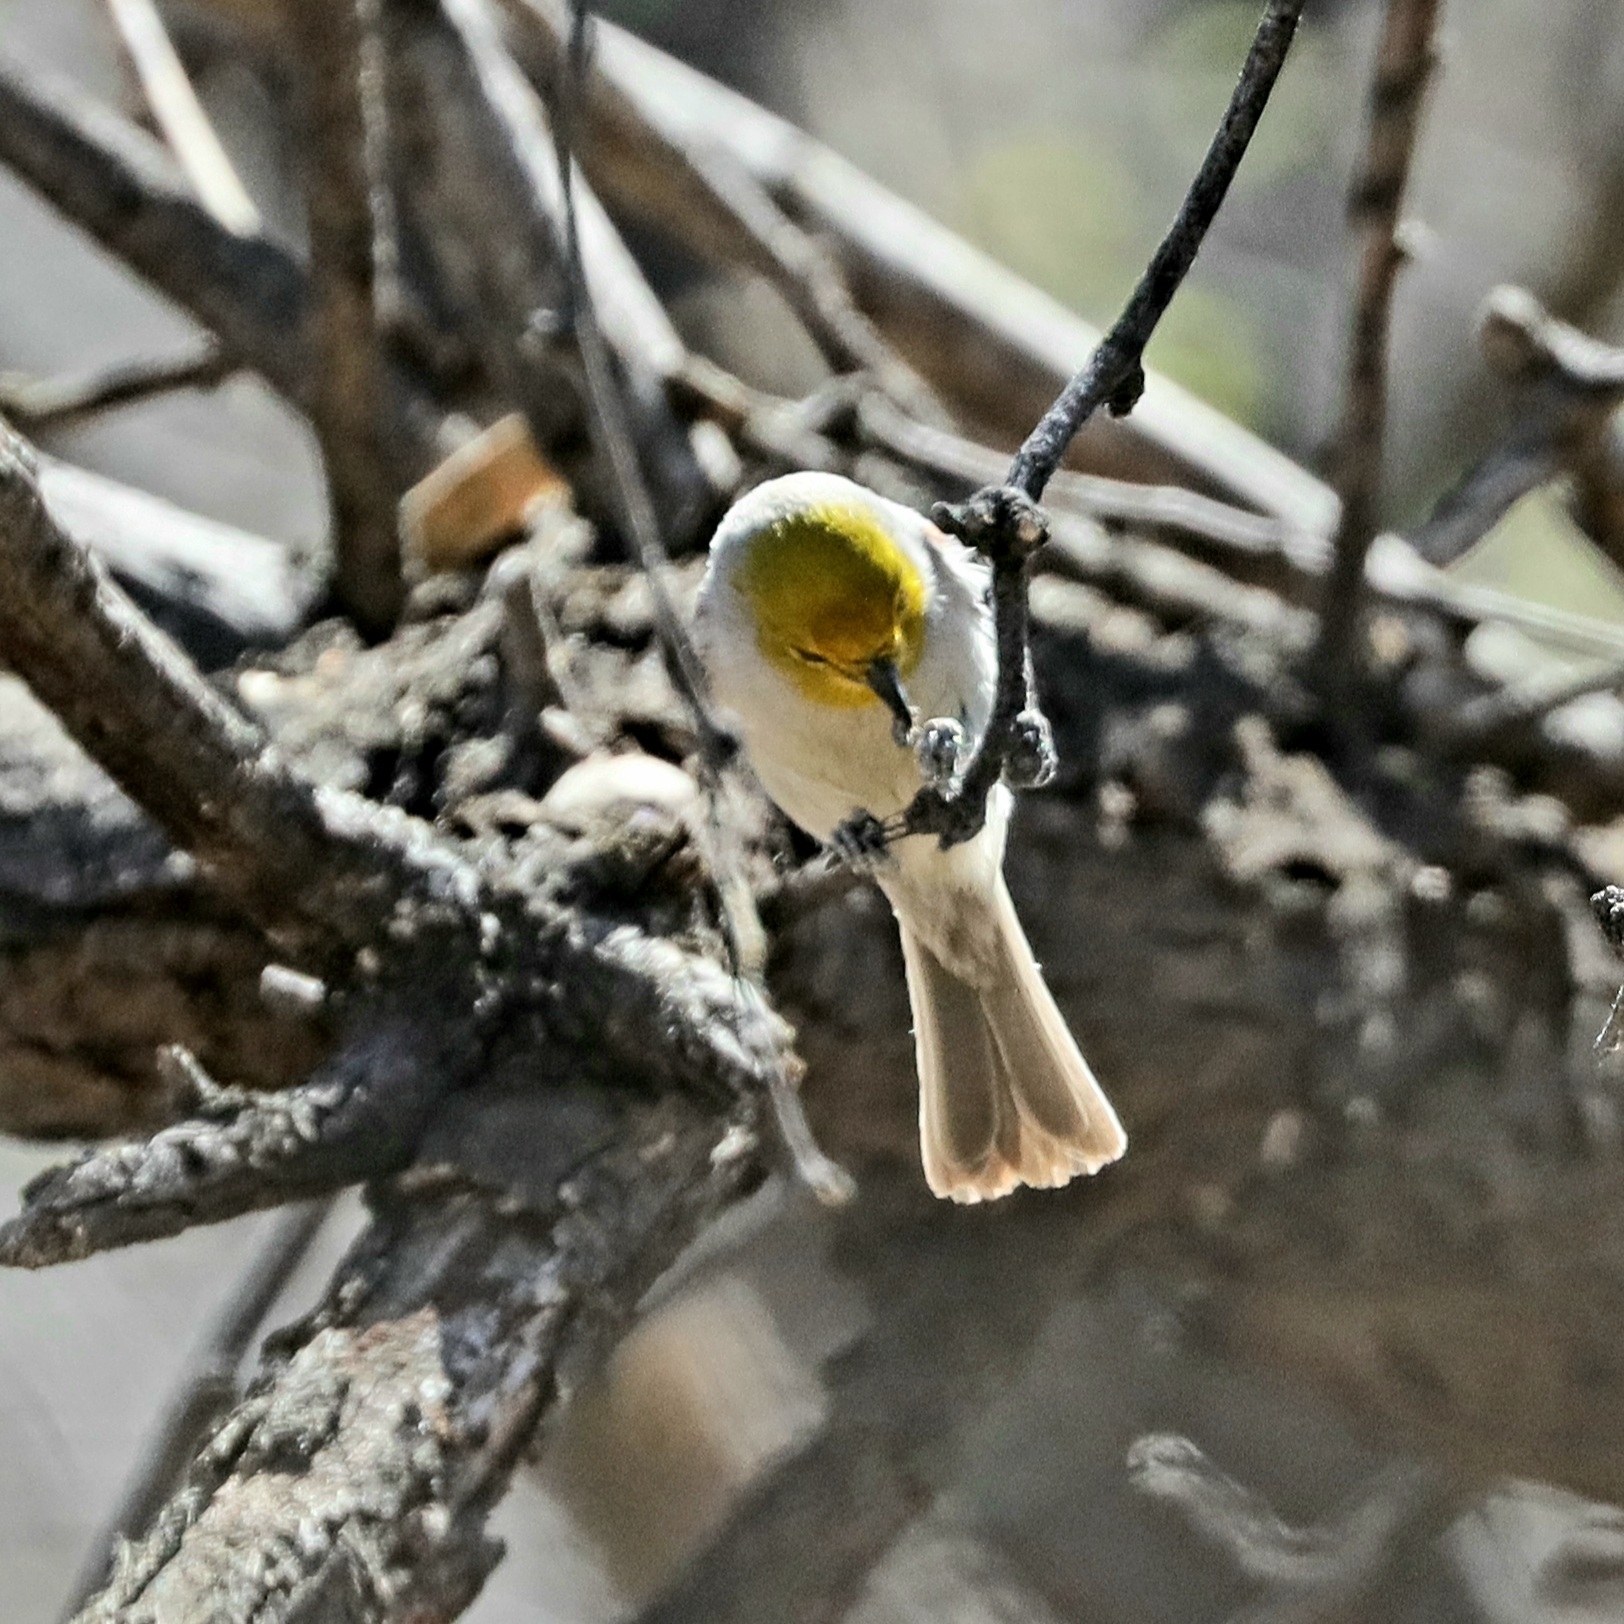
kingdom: Animalia
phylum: Chordata
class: Aves
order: Passeriformes
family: Remizidae
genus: Auriparus
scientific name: Auriparus flaviceps
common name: Verdin
